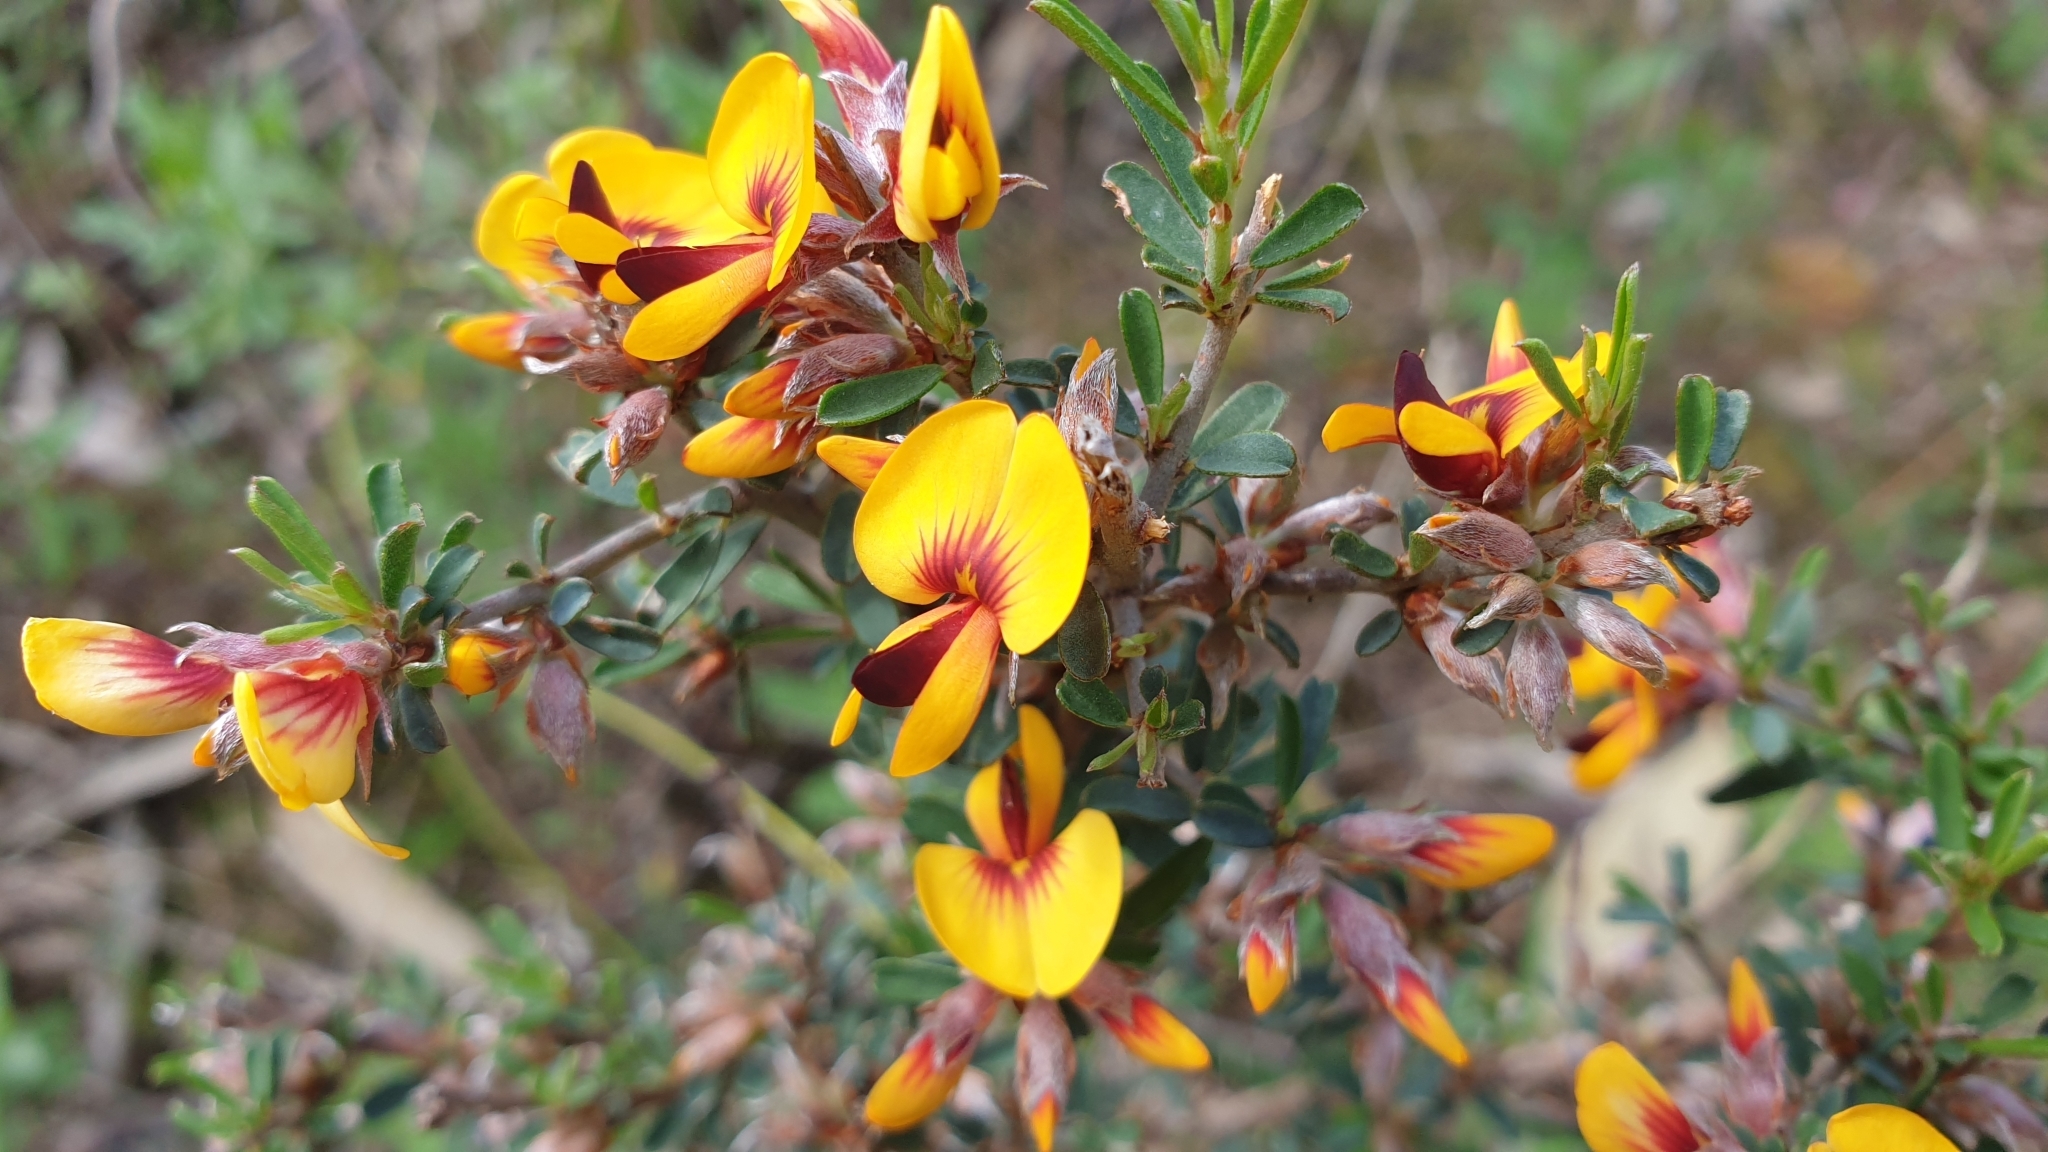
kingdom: Plantae
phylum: Tracheophyta
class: Magnoliopsida
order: Fabales
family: Fabaceae
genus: Pultenaea
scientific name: Pultenaea largiflorens
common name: Twiggy bush-pea
